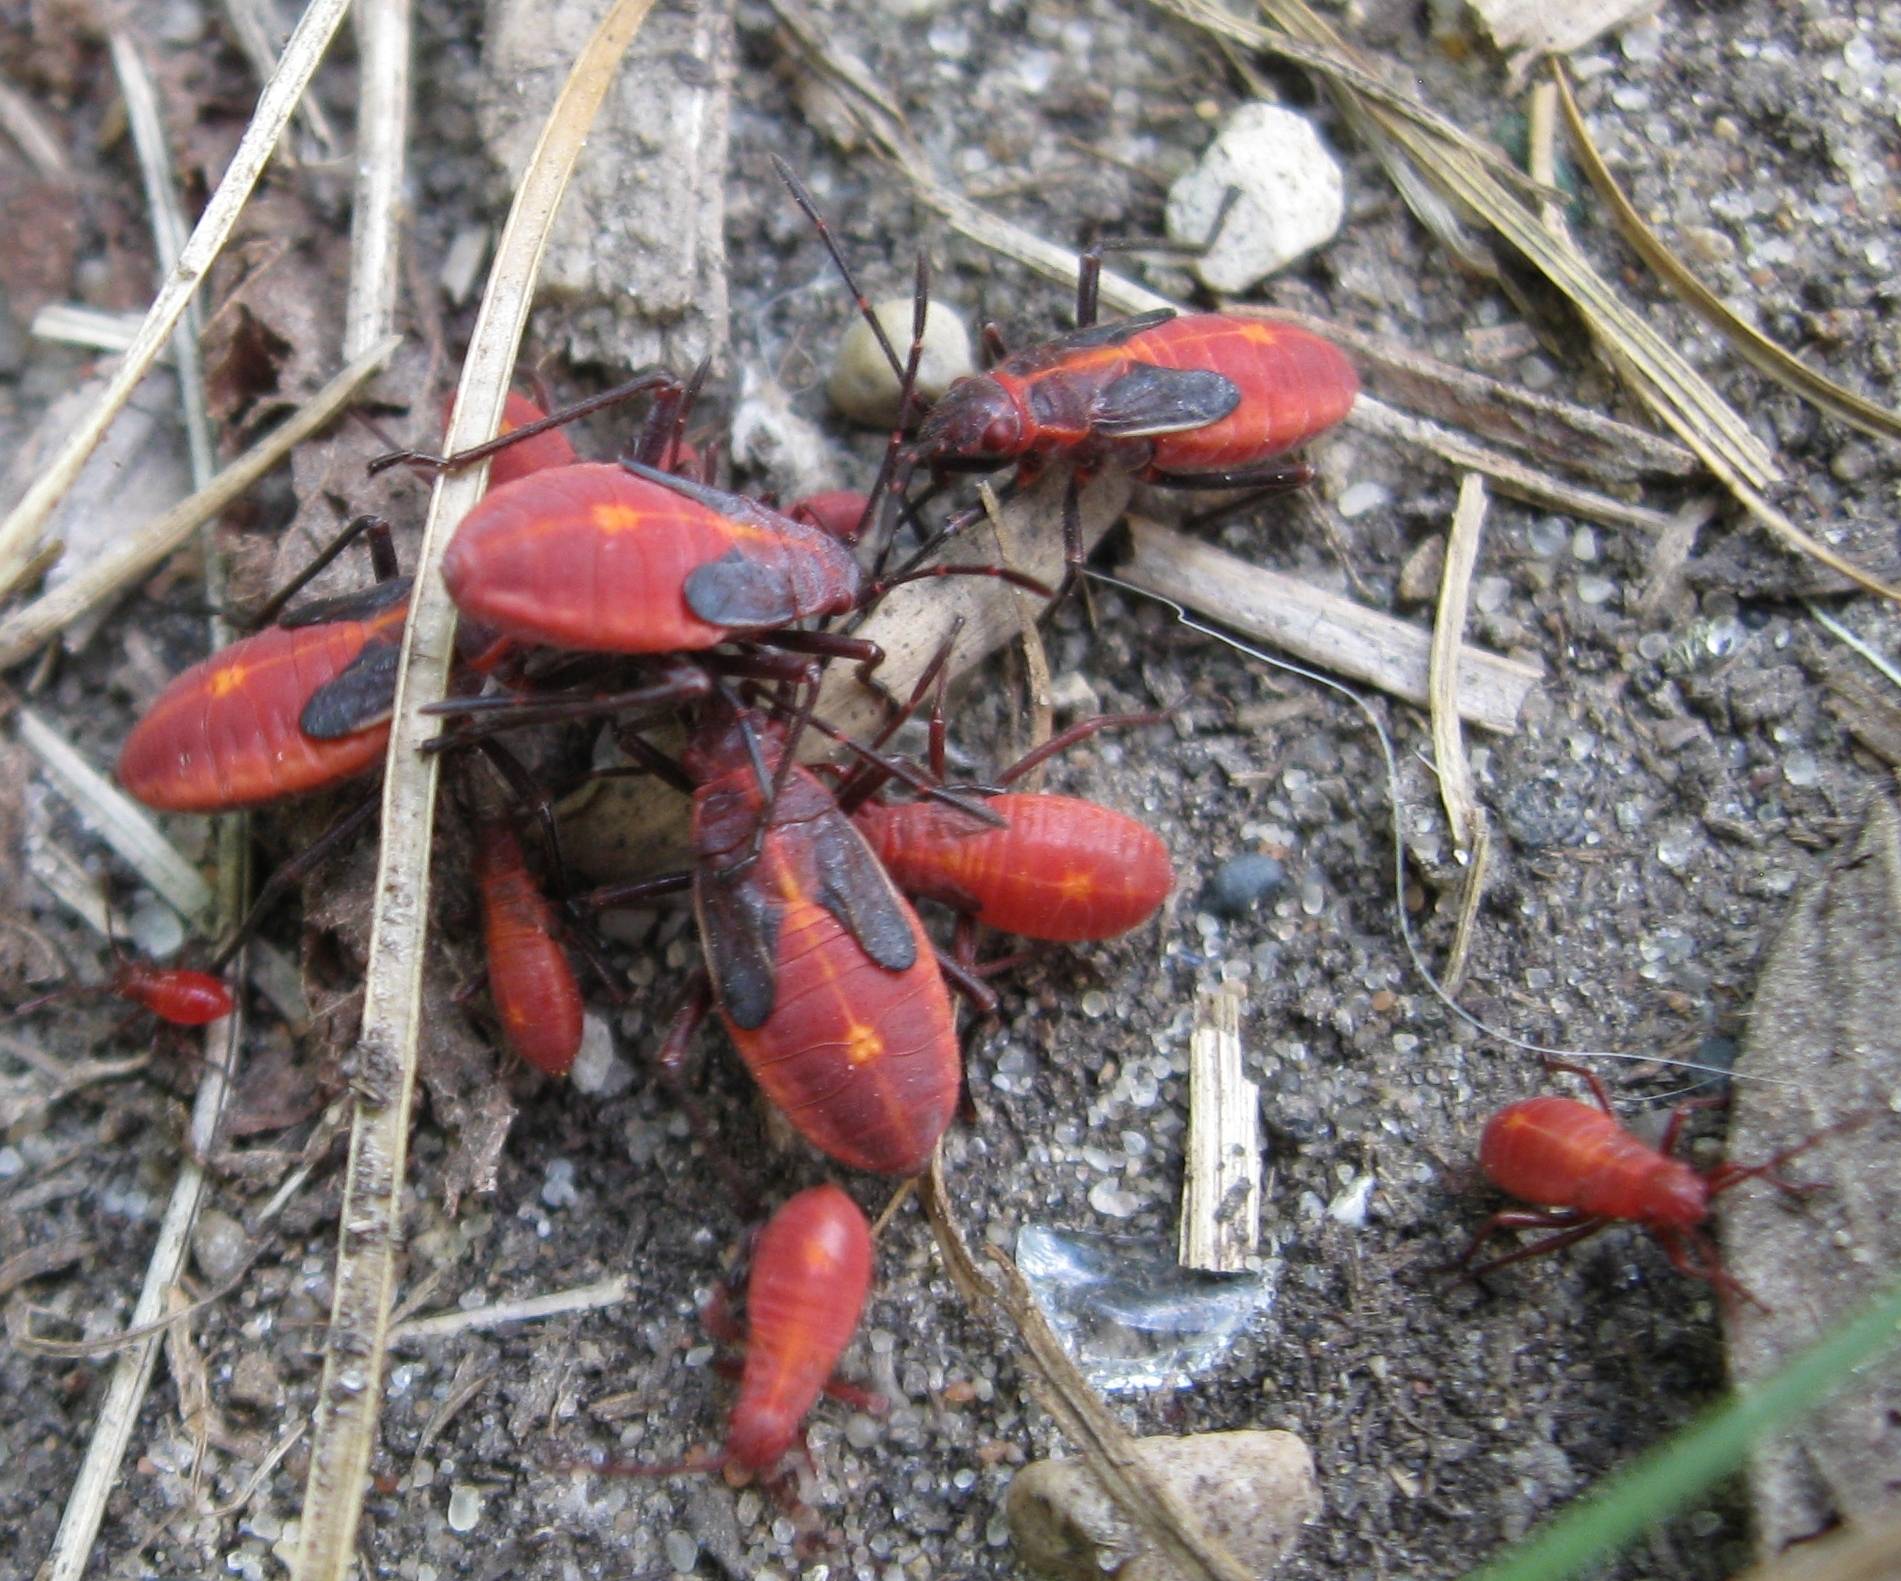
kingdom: Animalia
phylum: Arthropoda
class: Insecta
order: Hemiptera
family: Rhopalidae
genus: Boisea
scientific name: Boisea trivittata
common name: Boxelder bug
